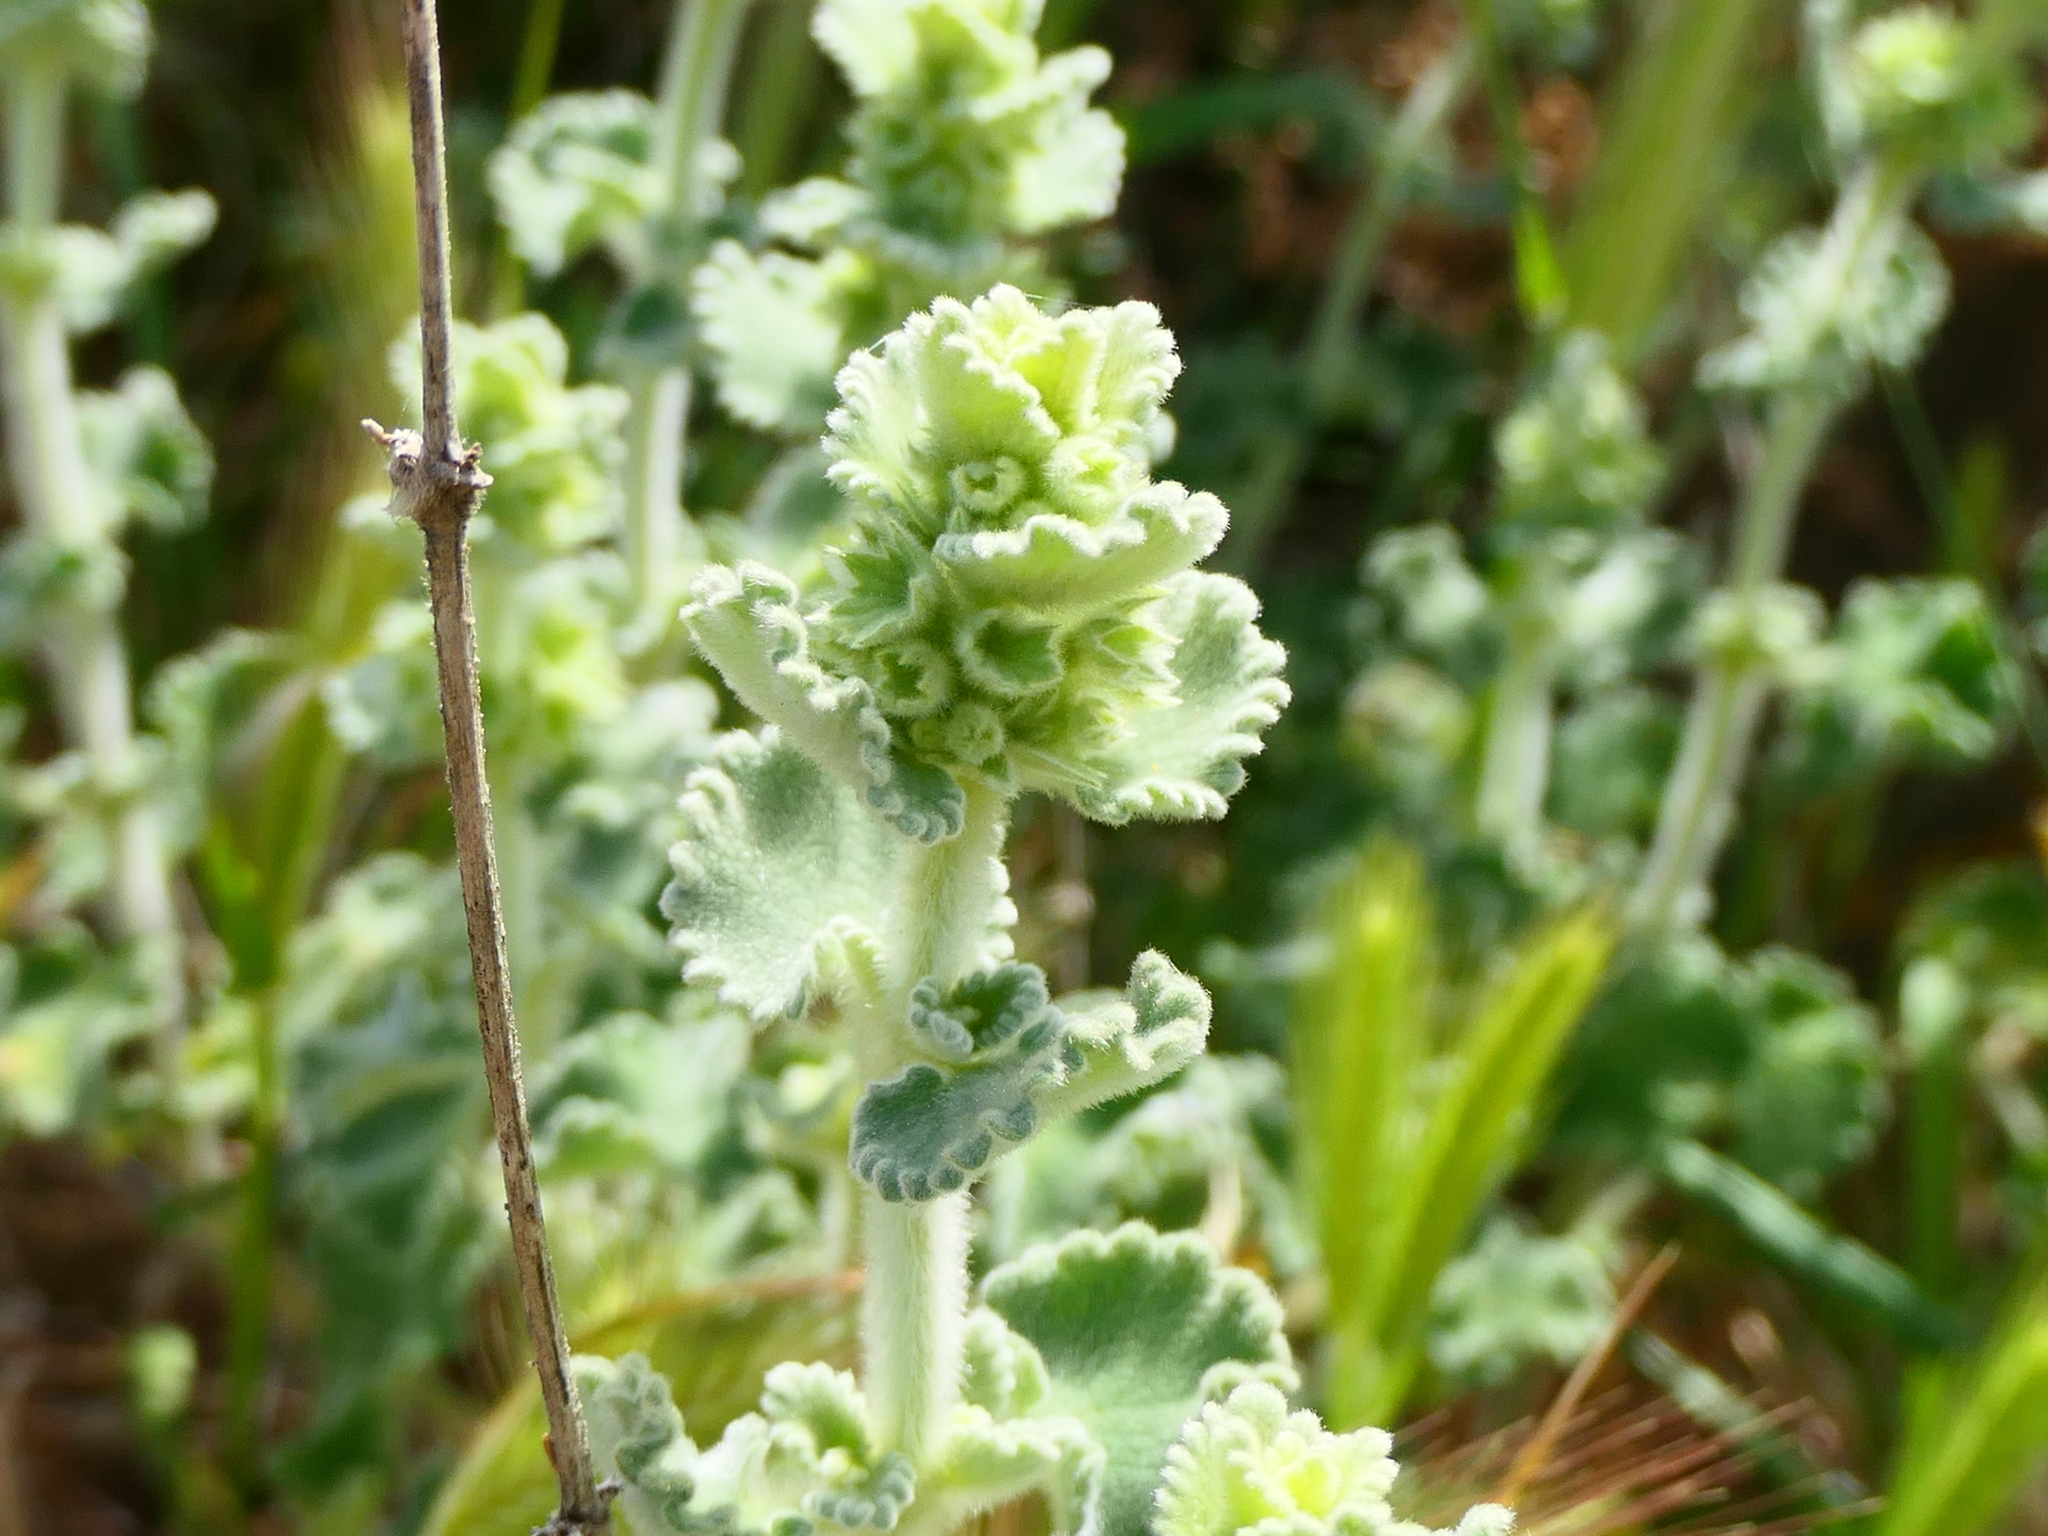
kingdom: Plantae
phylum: Tracheophyta
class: Magnoliopsida
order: Lamiales
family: Lamiaceae
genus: Pseudodictamnus
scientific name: Pseudodictamnus hirsutus
